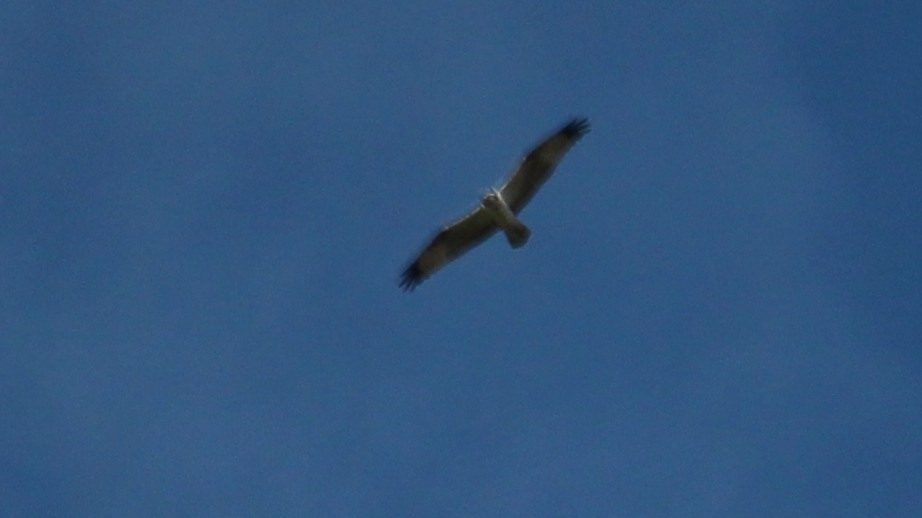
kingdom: Animalia
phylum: Chordata
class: Aves
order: Accipitriformes
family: Pandionidae
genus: Pandion
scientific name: Pandion haliaetus
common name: Osprey
